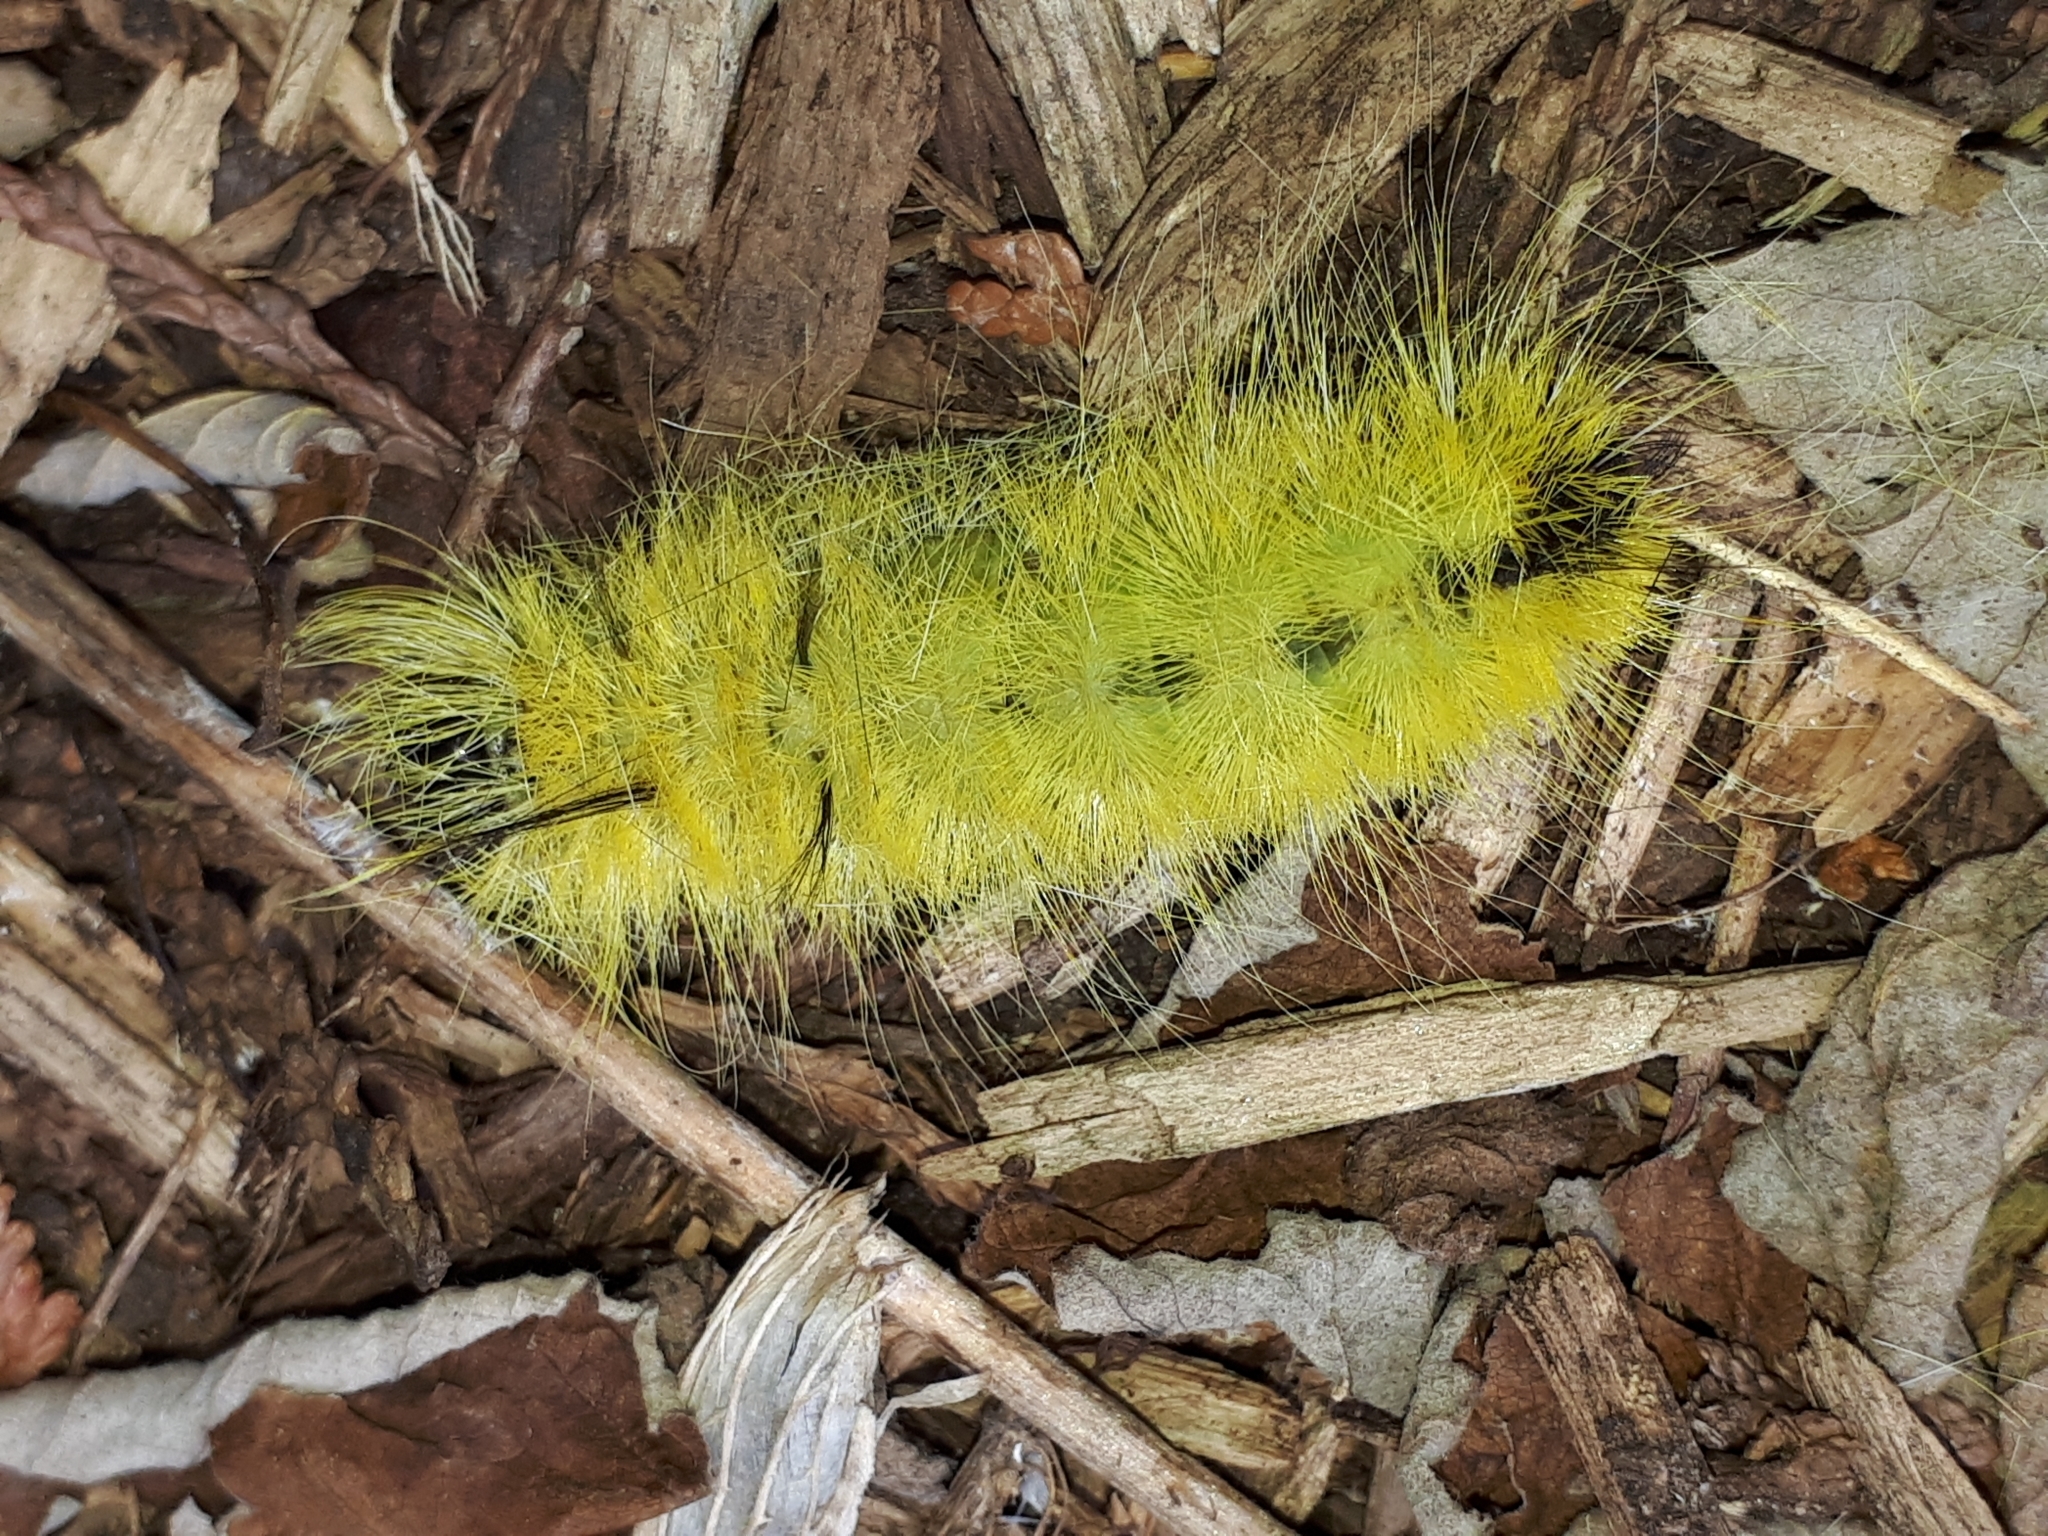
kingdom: Animalia
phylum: Arthropoda
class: Insecta
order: Lepidoptera
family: Noctuidae
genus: Acronicta
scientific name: Acronicta americana
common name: American dagger
